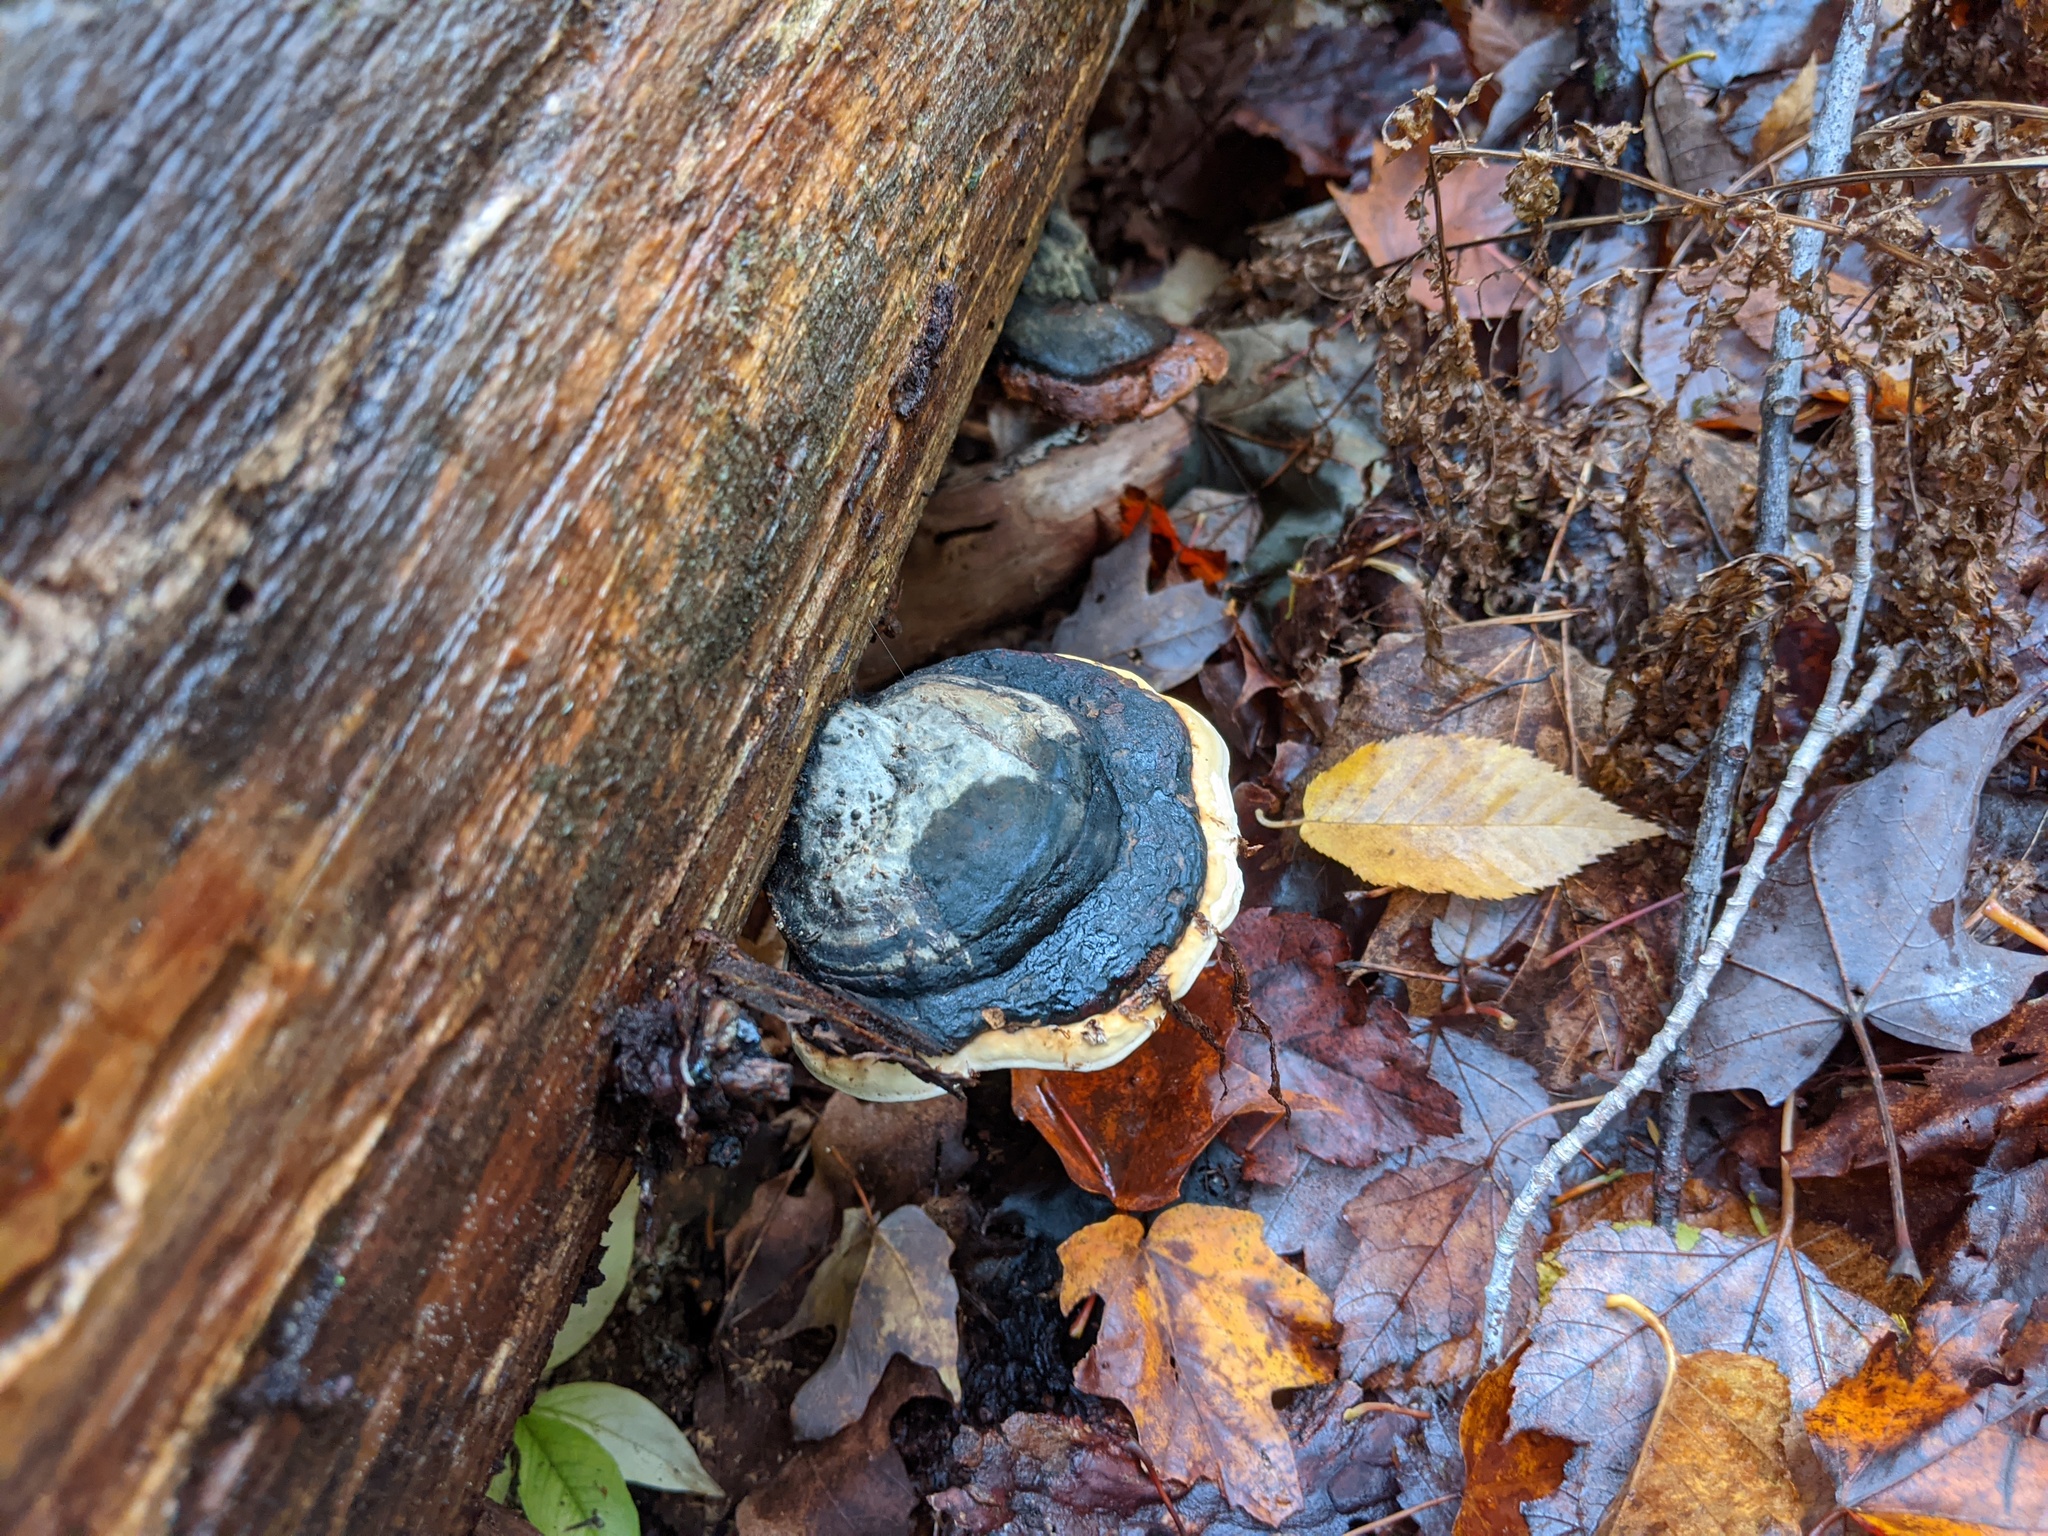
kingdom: Fungi
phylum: Basidiomycota
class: Agaricomycetes
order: Polyporales
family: Fomitopsidaceae
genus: Fomitopsis
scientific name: Fomitopsis mounceae
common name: Northern red belt
